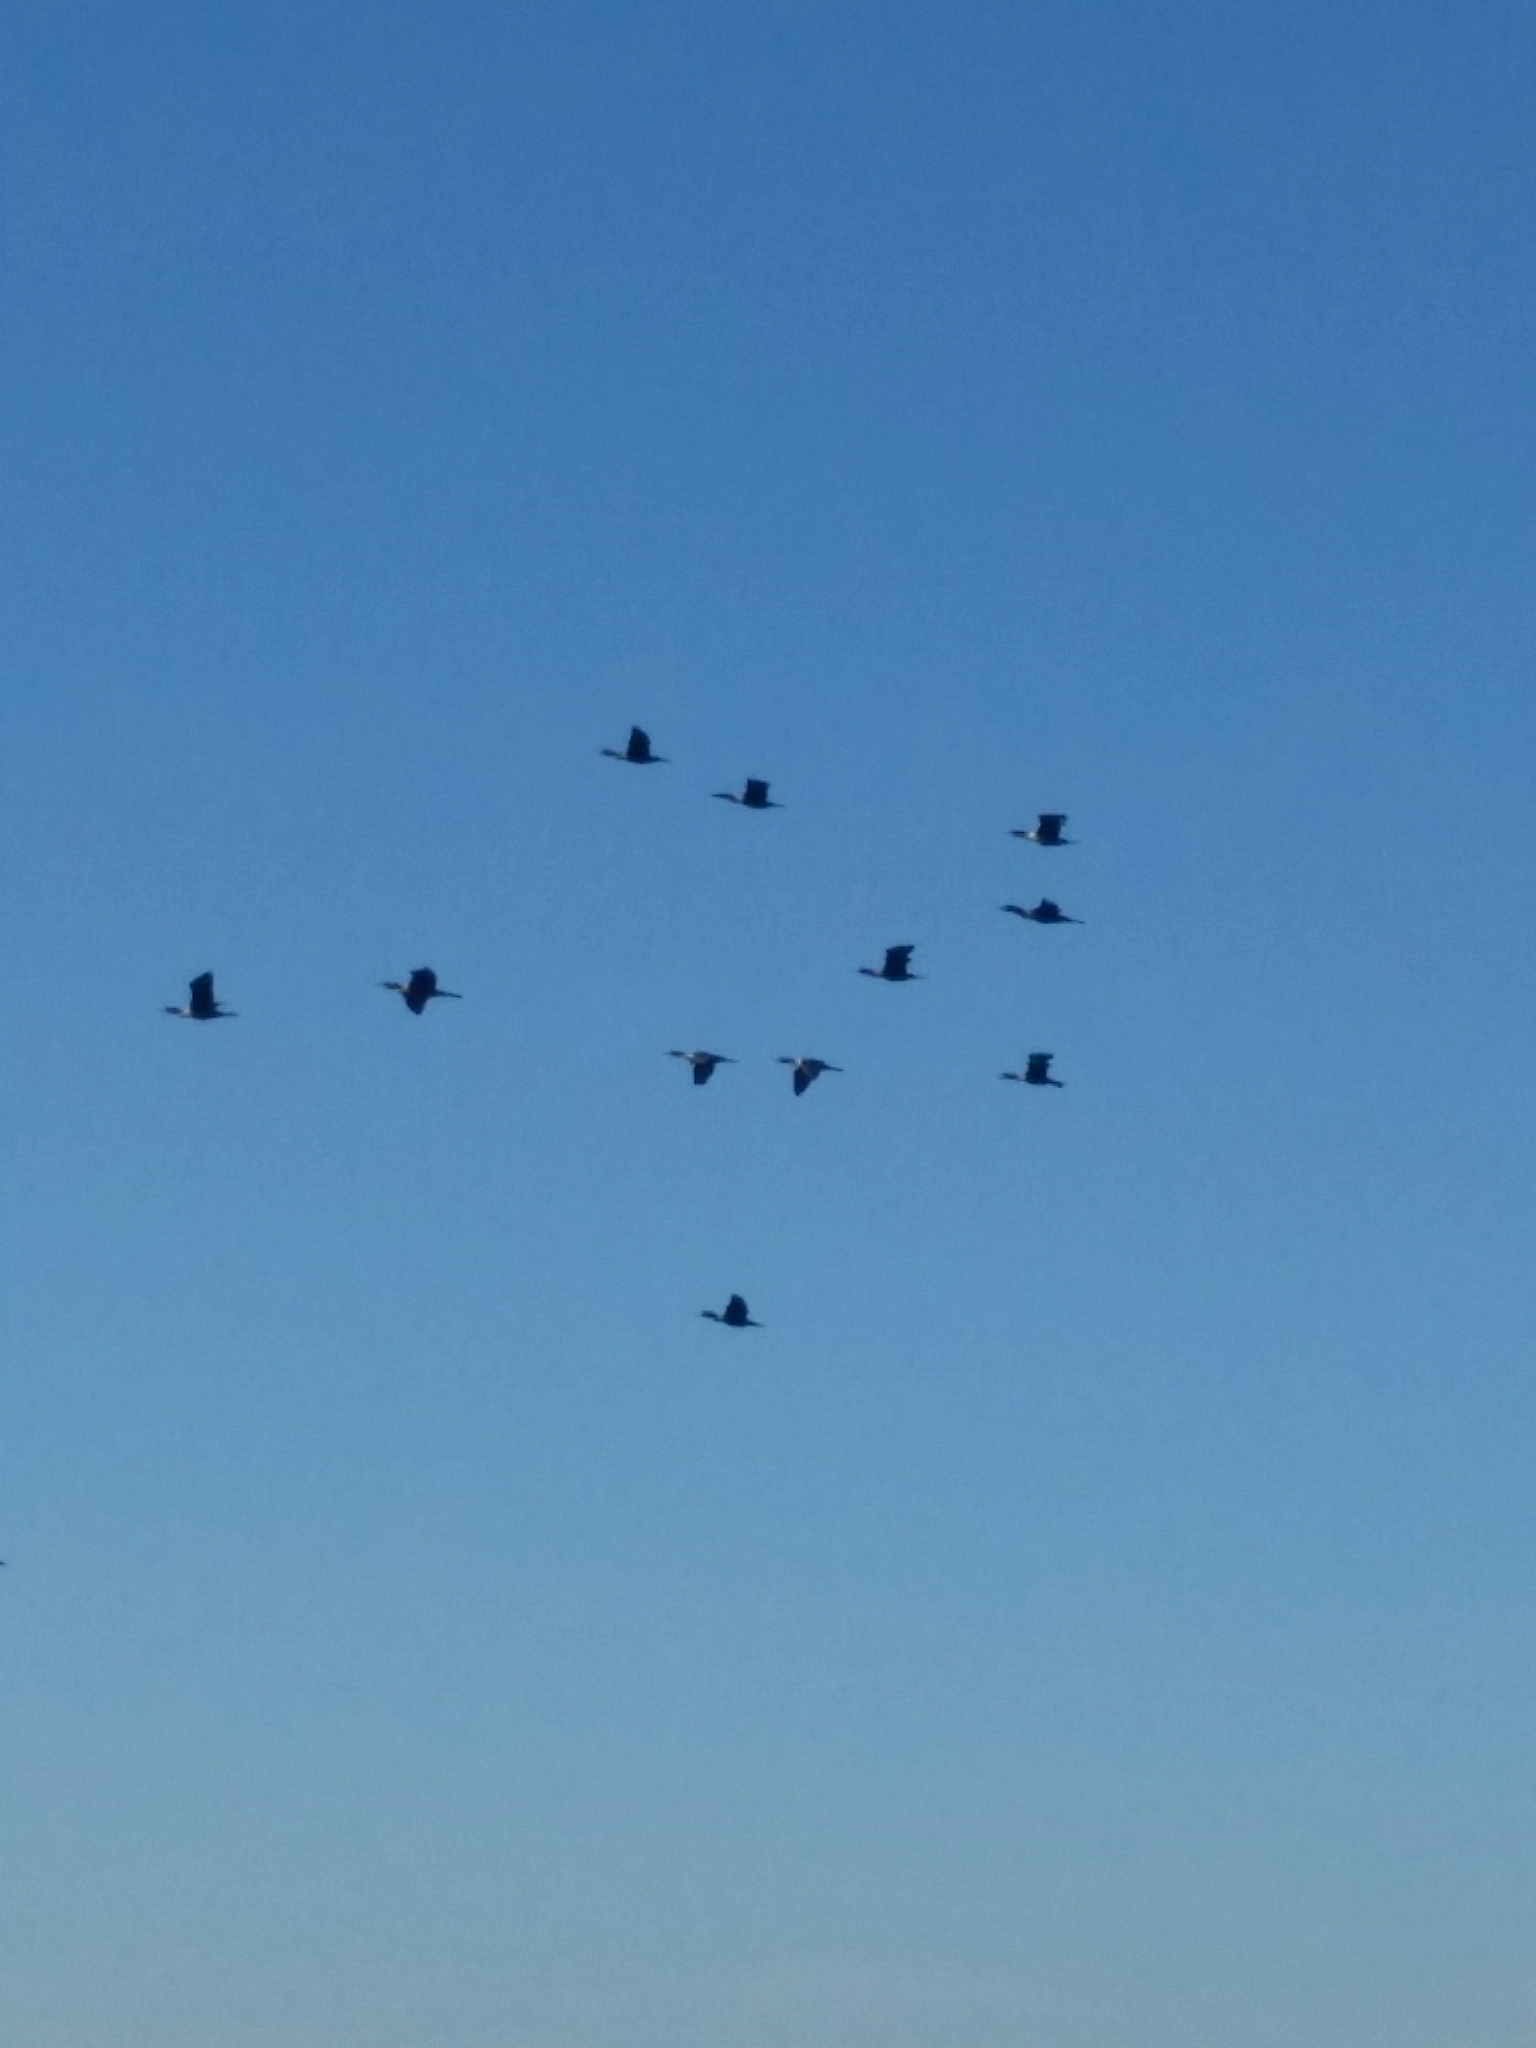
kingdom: Animalia
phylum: Chordata
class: Aves
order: Suliformes
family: Phalacrocoracidae
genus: Phalacrocorax
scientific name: Phalacrocorax auritus
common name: Double-crested cormorant
